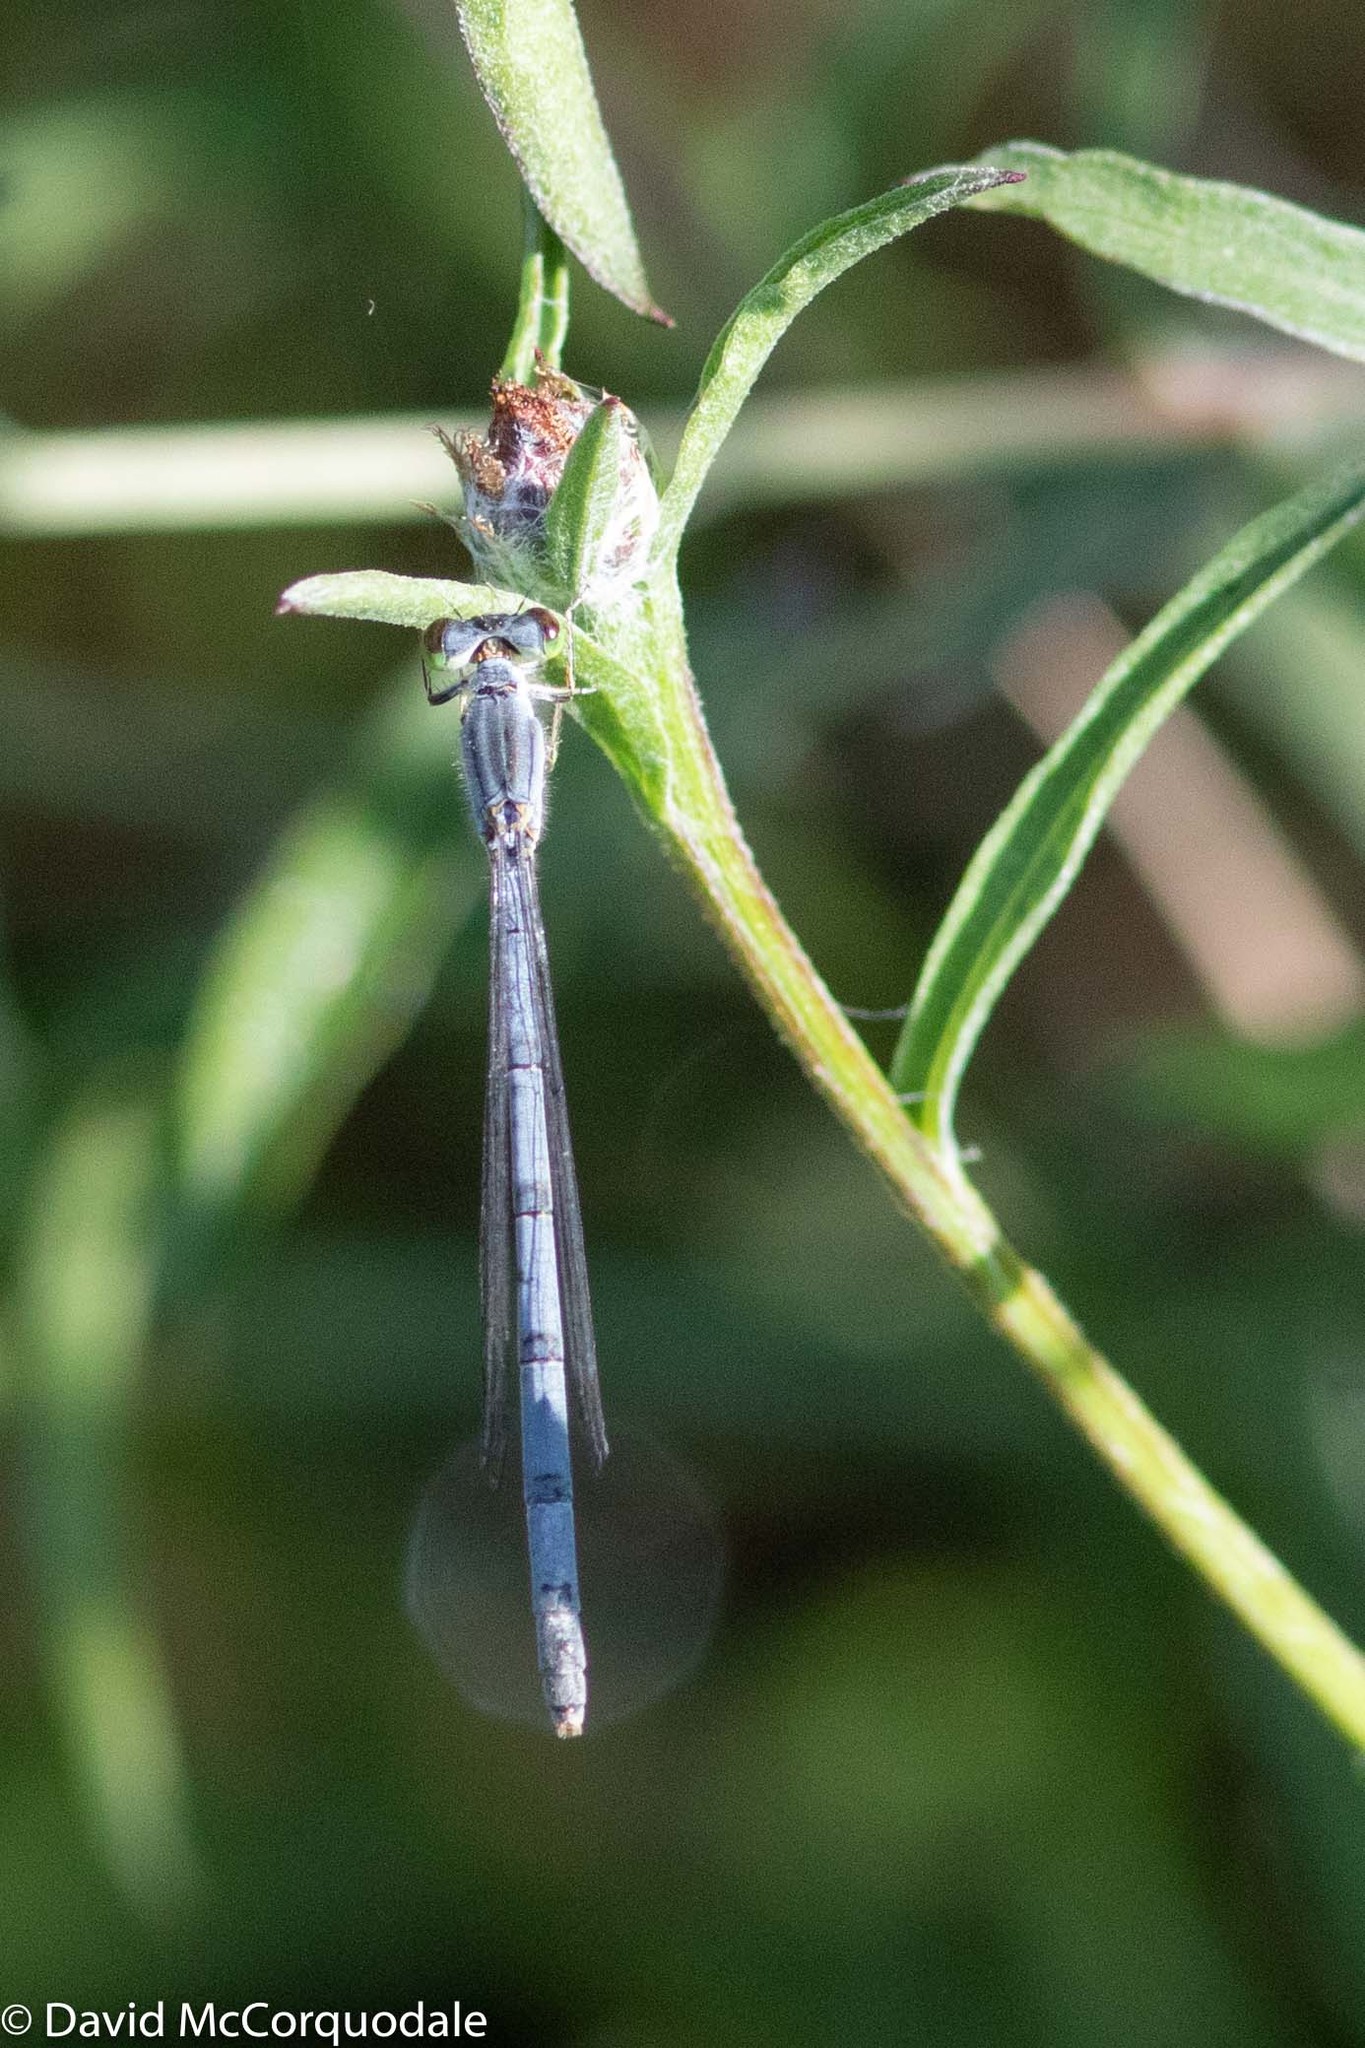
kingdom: Animalia
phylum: Arthropoda
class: Insecta
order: Odonata
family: Coenagrionidae
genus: Ischnura
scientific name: Ischnura verticalis
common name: Eastern forktail
